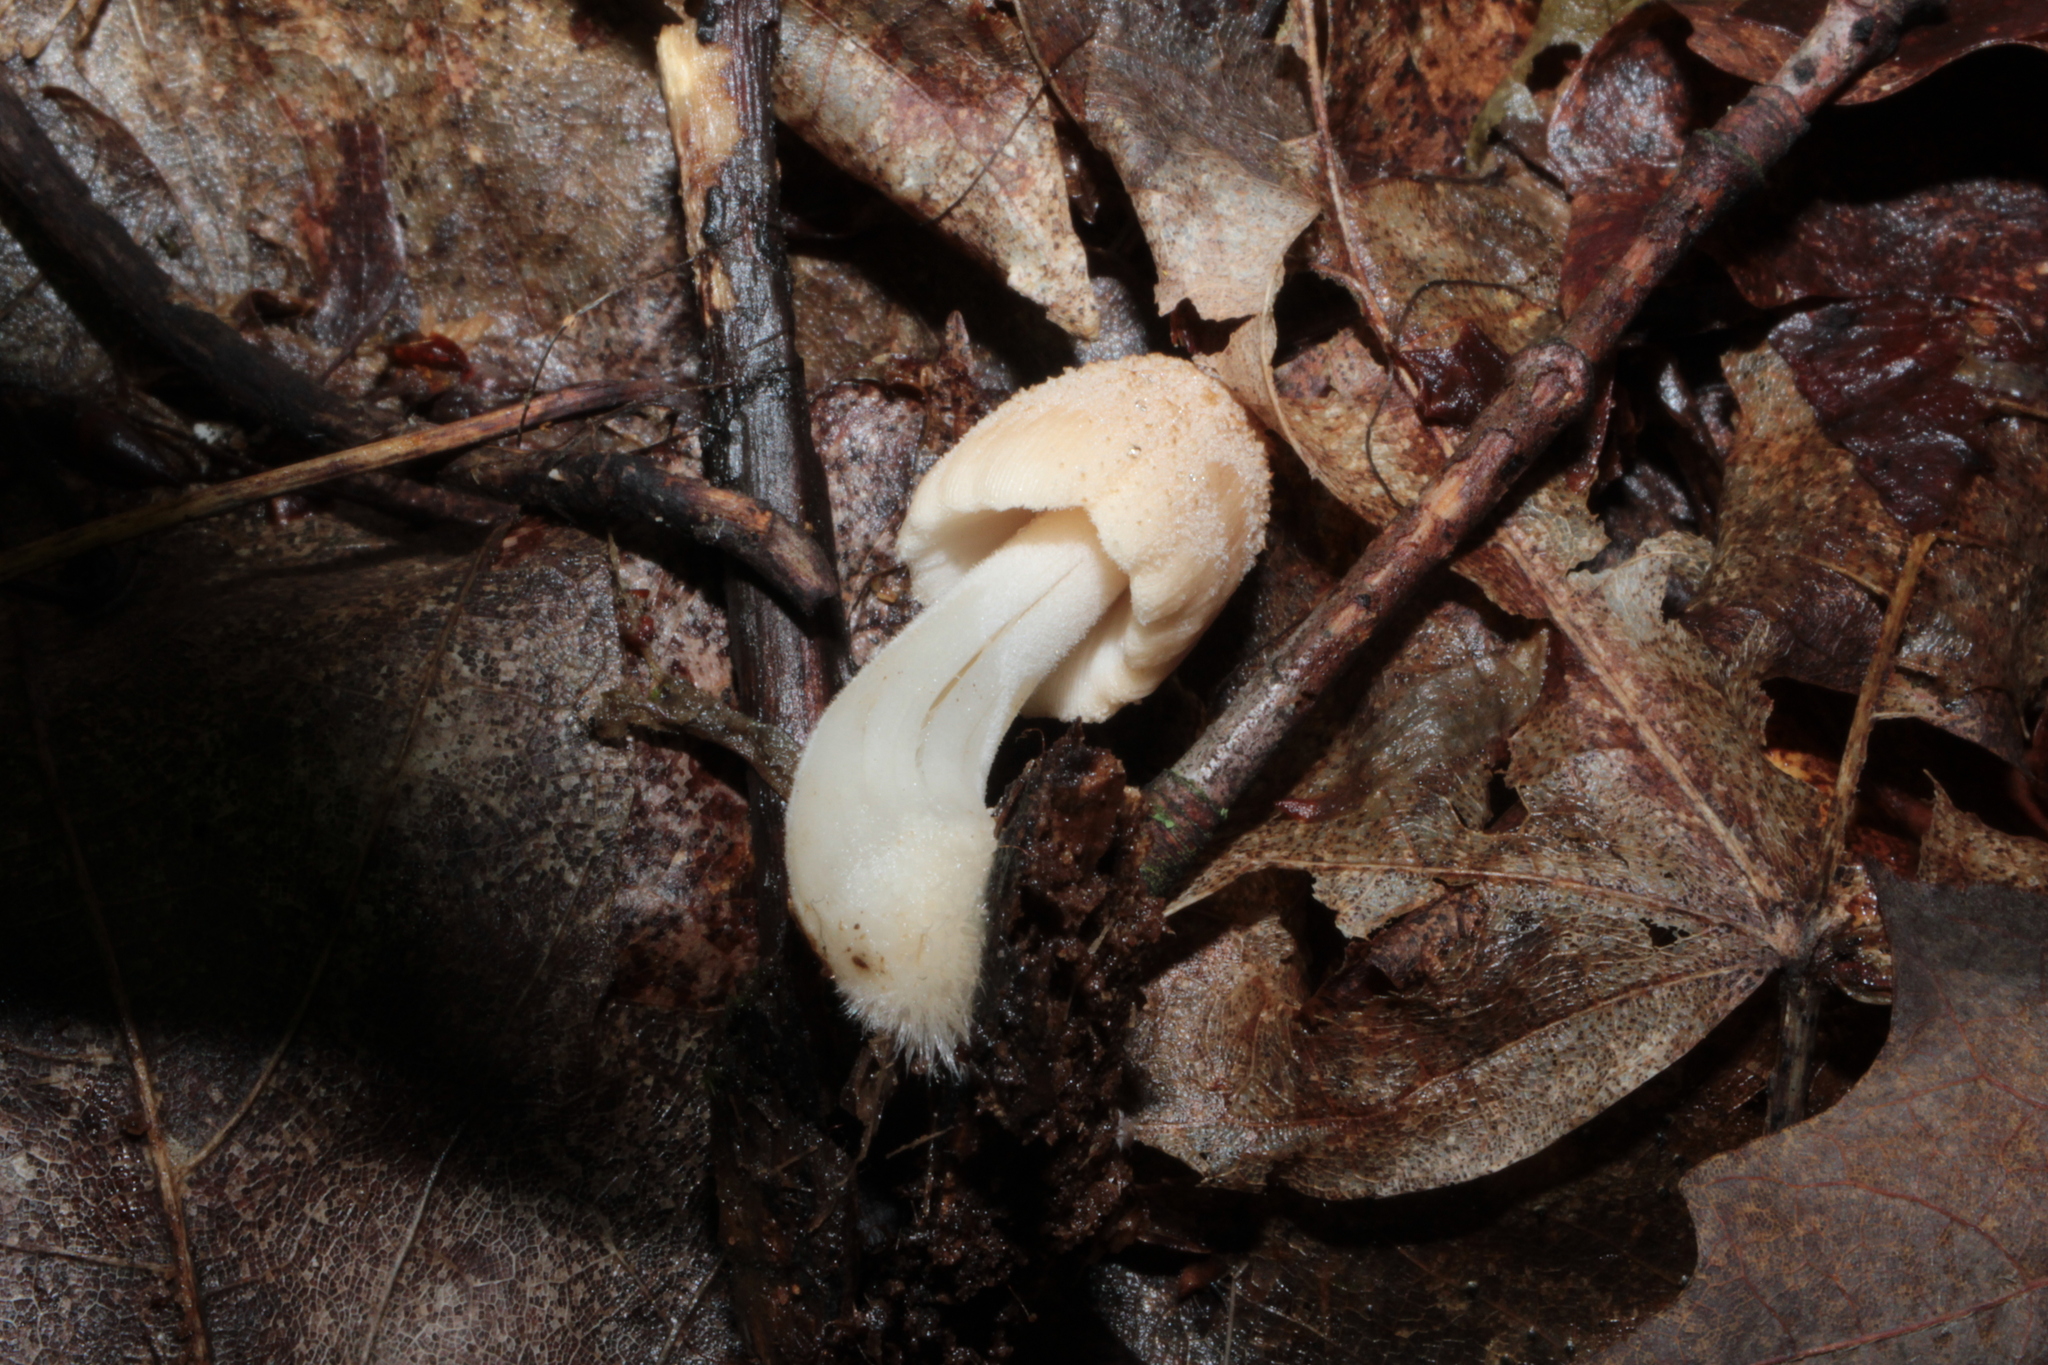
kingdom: Fungi
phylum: Basidiomycota
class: Agaricomycetes
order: Agaricales
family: Psathyrellaceae
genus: Coprinellus
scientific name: Coprinellus radians
